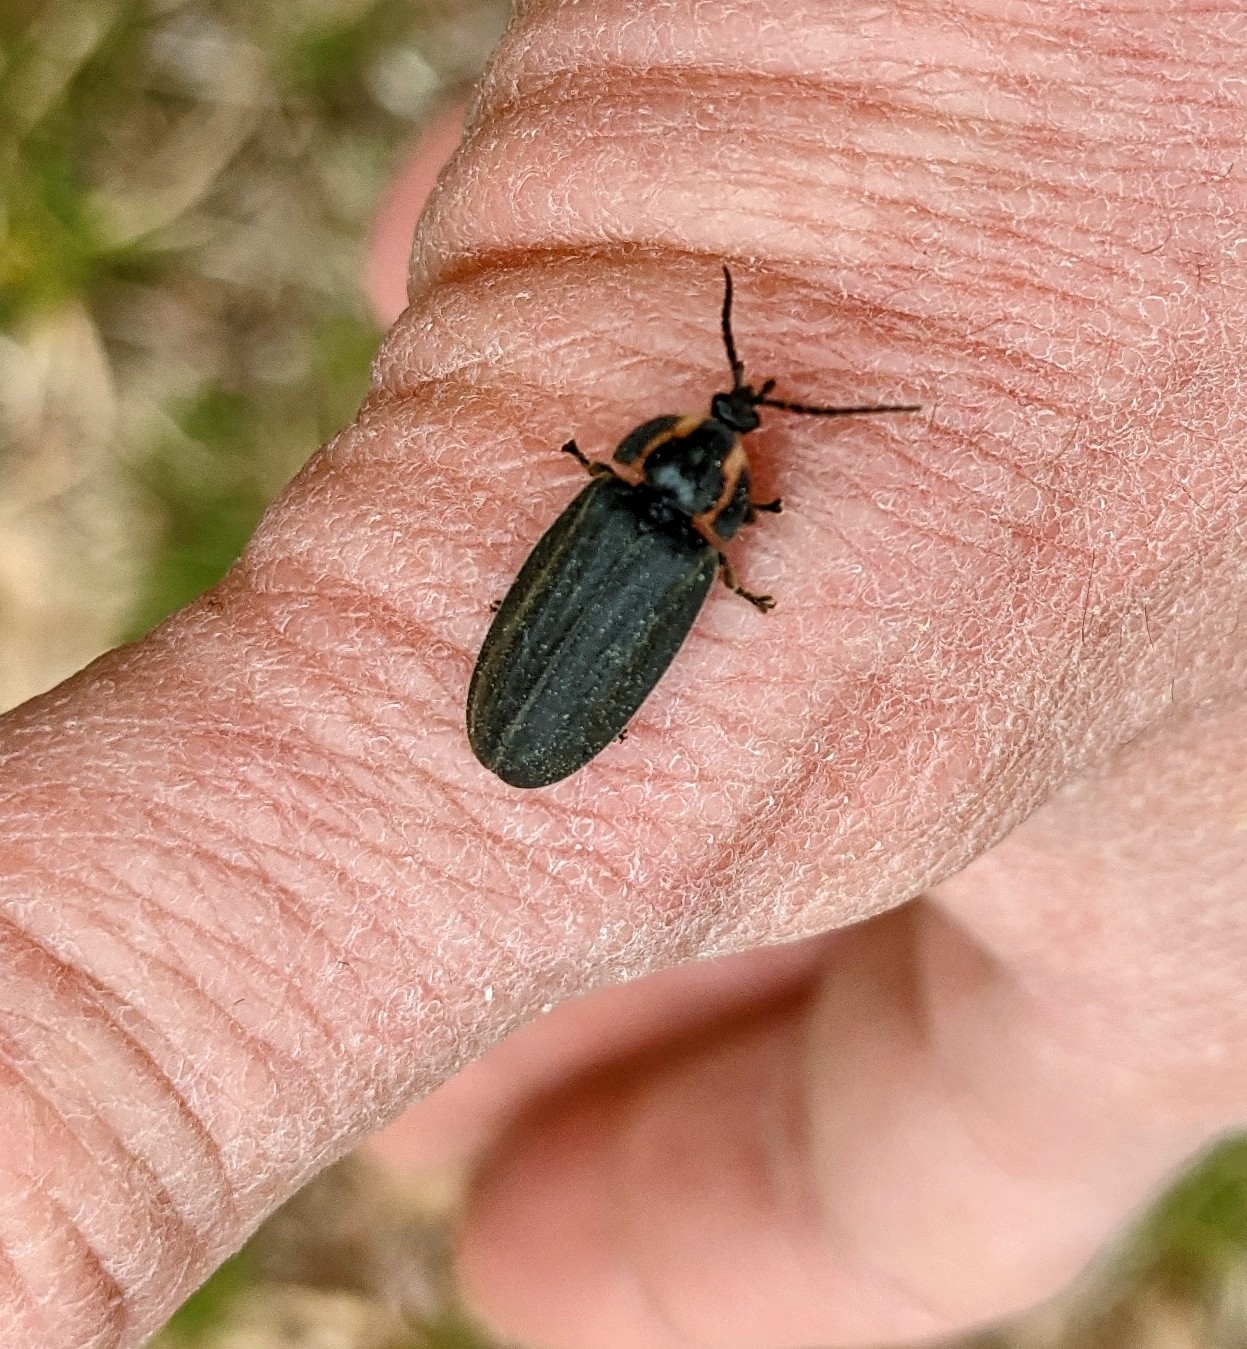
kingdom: Animalia
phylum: Arthropoda
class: Insecta
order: Coleoptera
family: Lampyridae
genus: Photinus
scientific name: Photinus corrusca
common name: Winter firefly
